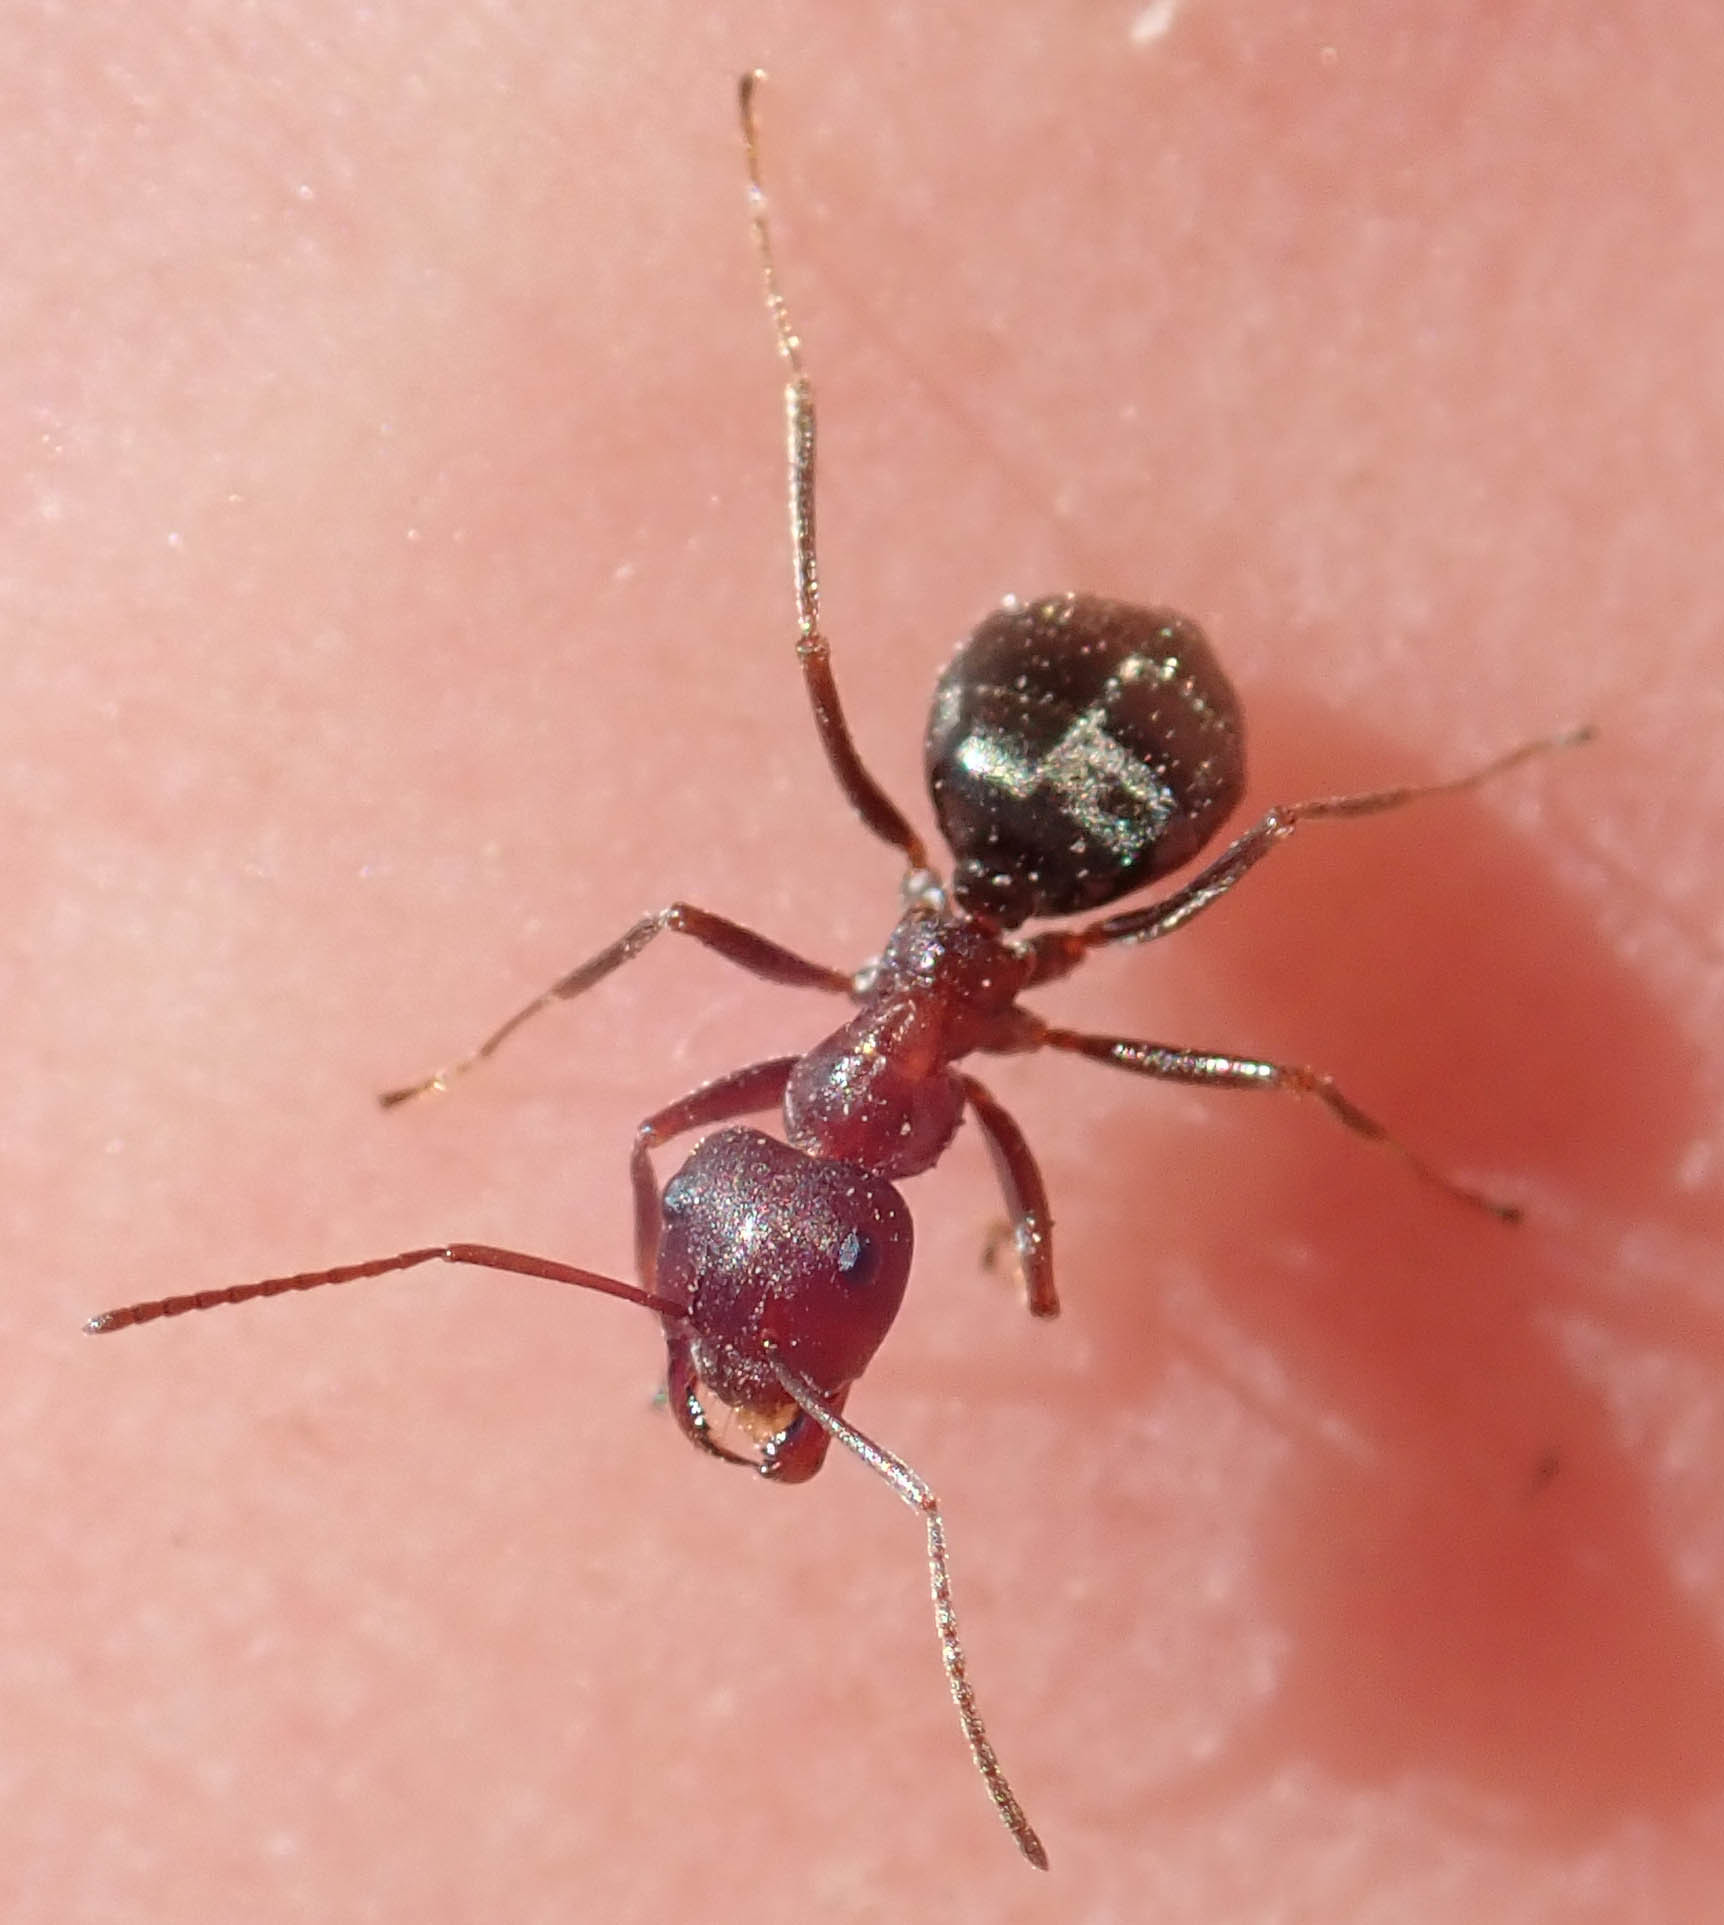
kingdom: Animalia
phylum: Arthropoda
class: Insecta
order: Hymenoptera
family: Formicidae
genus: Anoplolepis
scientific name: Anoplolepis steingroeveri
